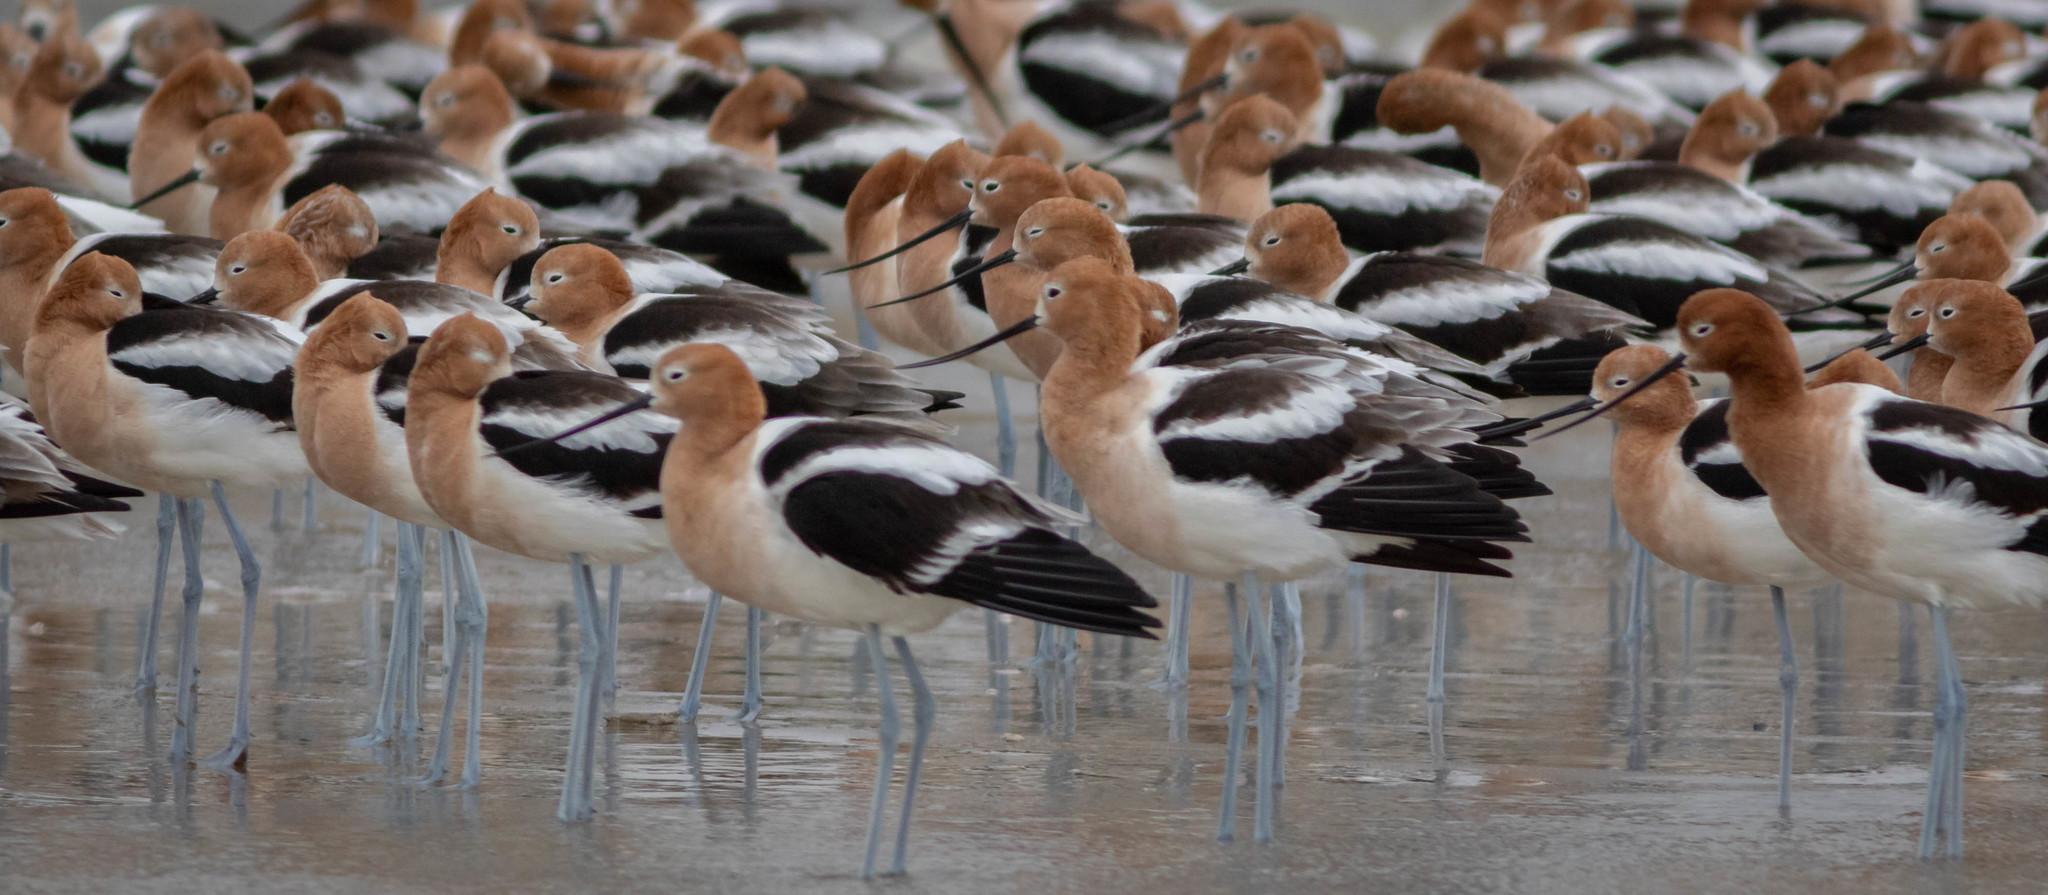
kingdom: Animalia
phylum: Chordata
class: Aves
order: Charadriiformes
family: Recurvirostridae
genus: Recurvirostra
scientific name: Recurvirostra americana
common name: American avocet
